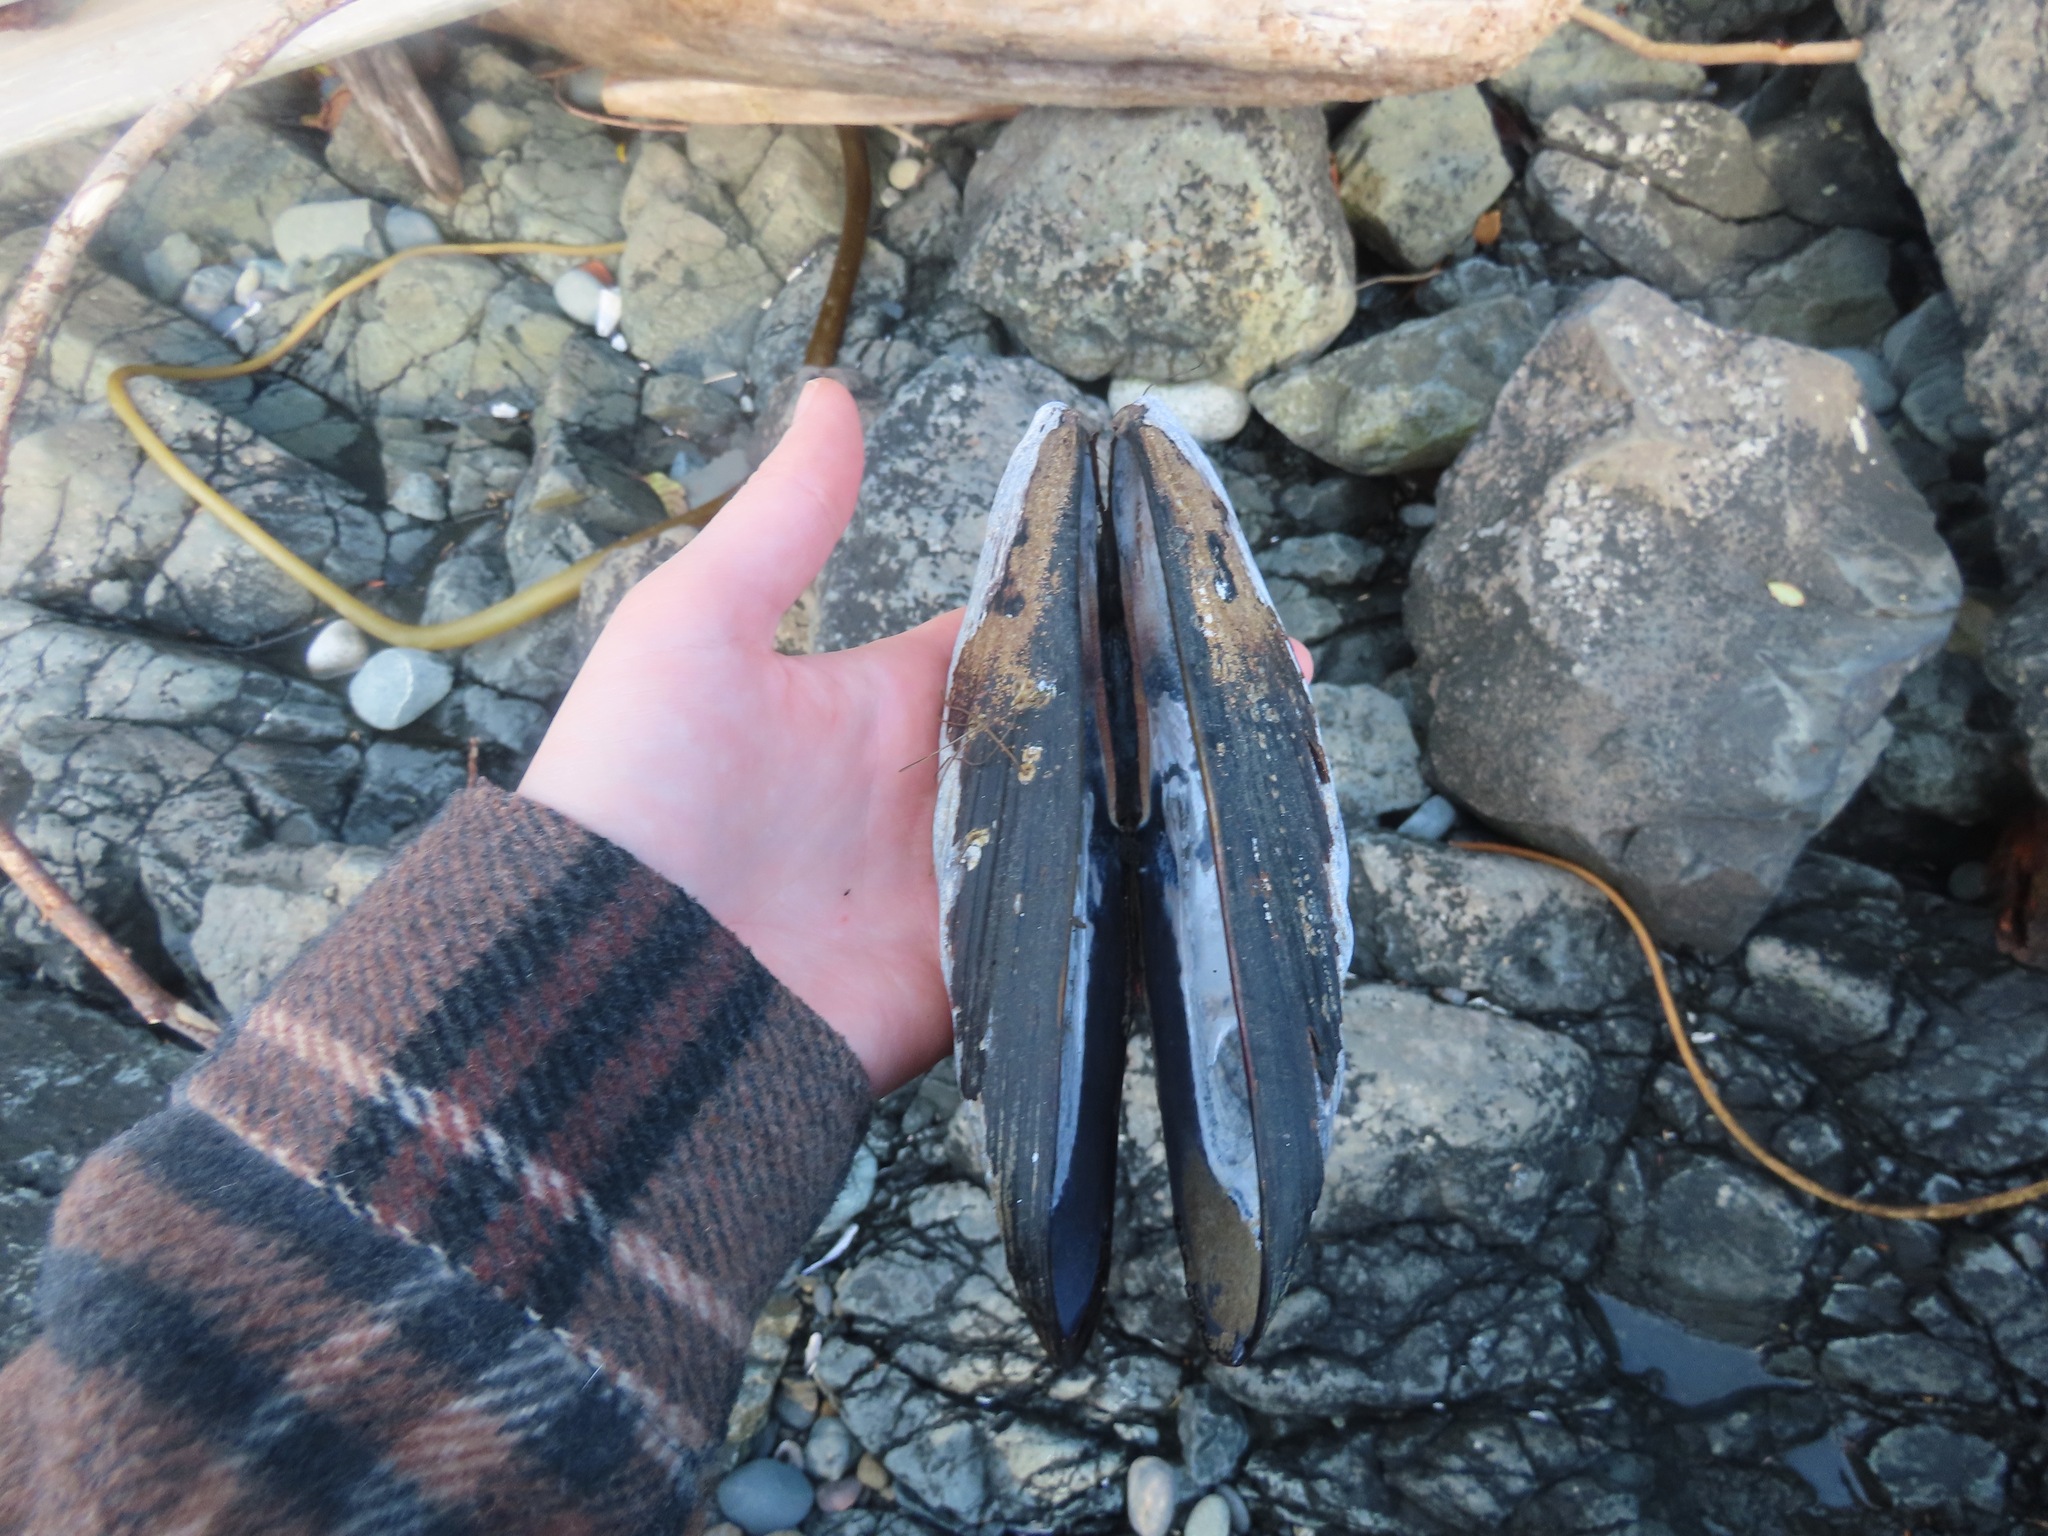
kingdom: Animalia
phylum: Mollusca
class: Bivalvia
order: Mytilida
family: Mytilidae
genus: Mytilus
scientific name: Mytilus californianus
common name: California mussel
